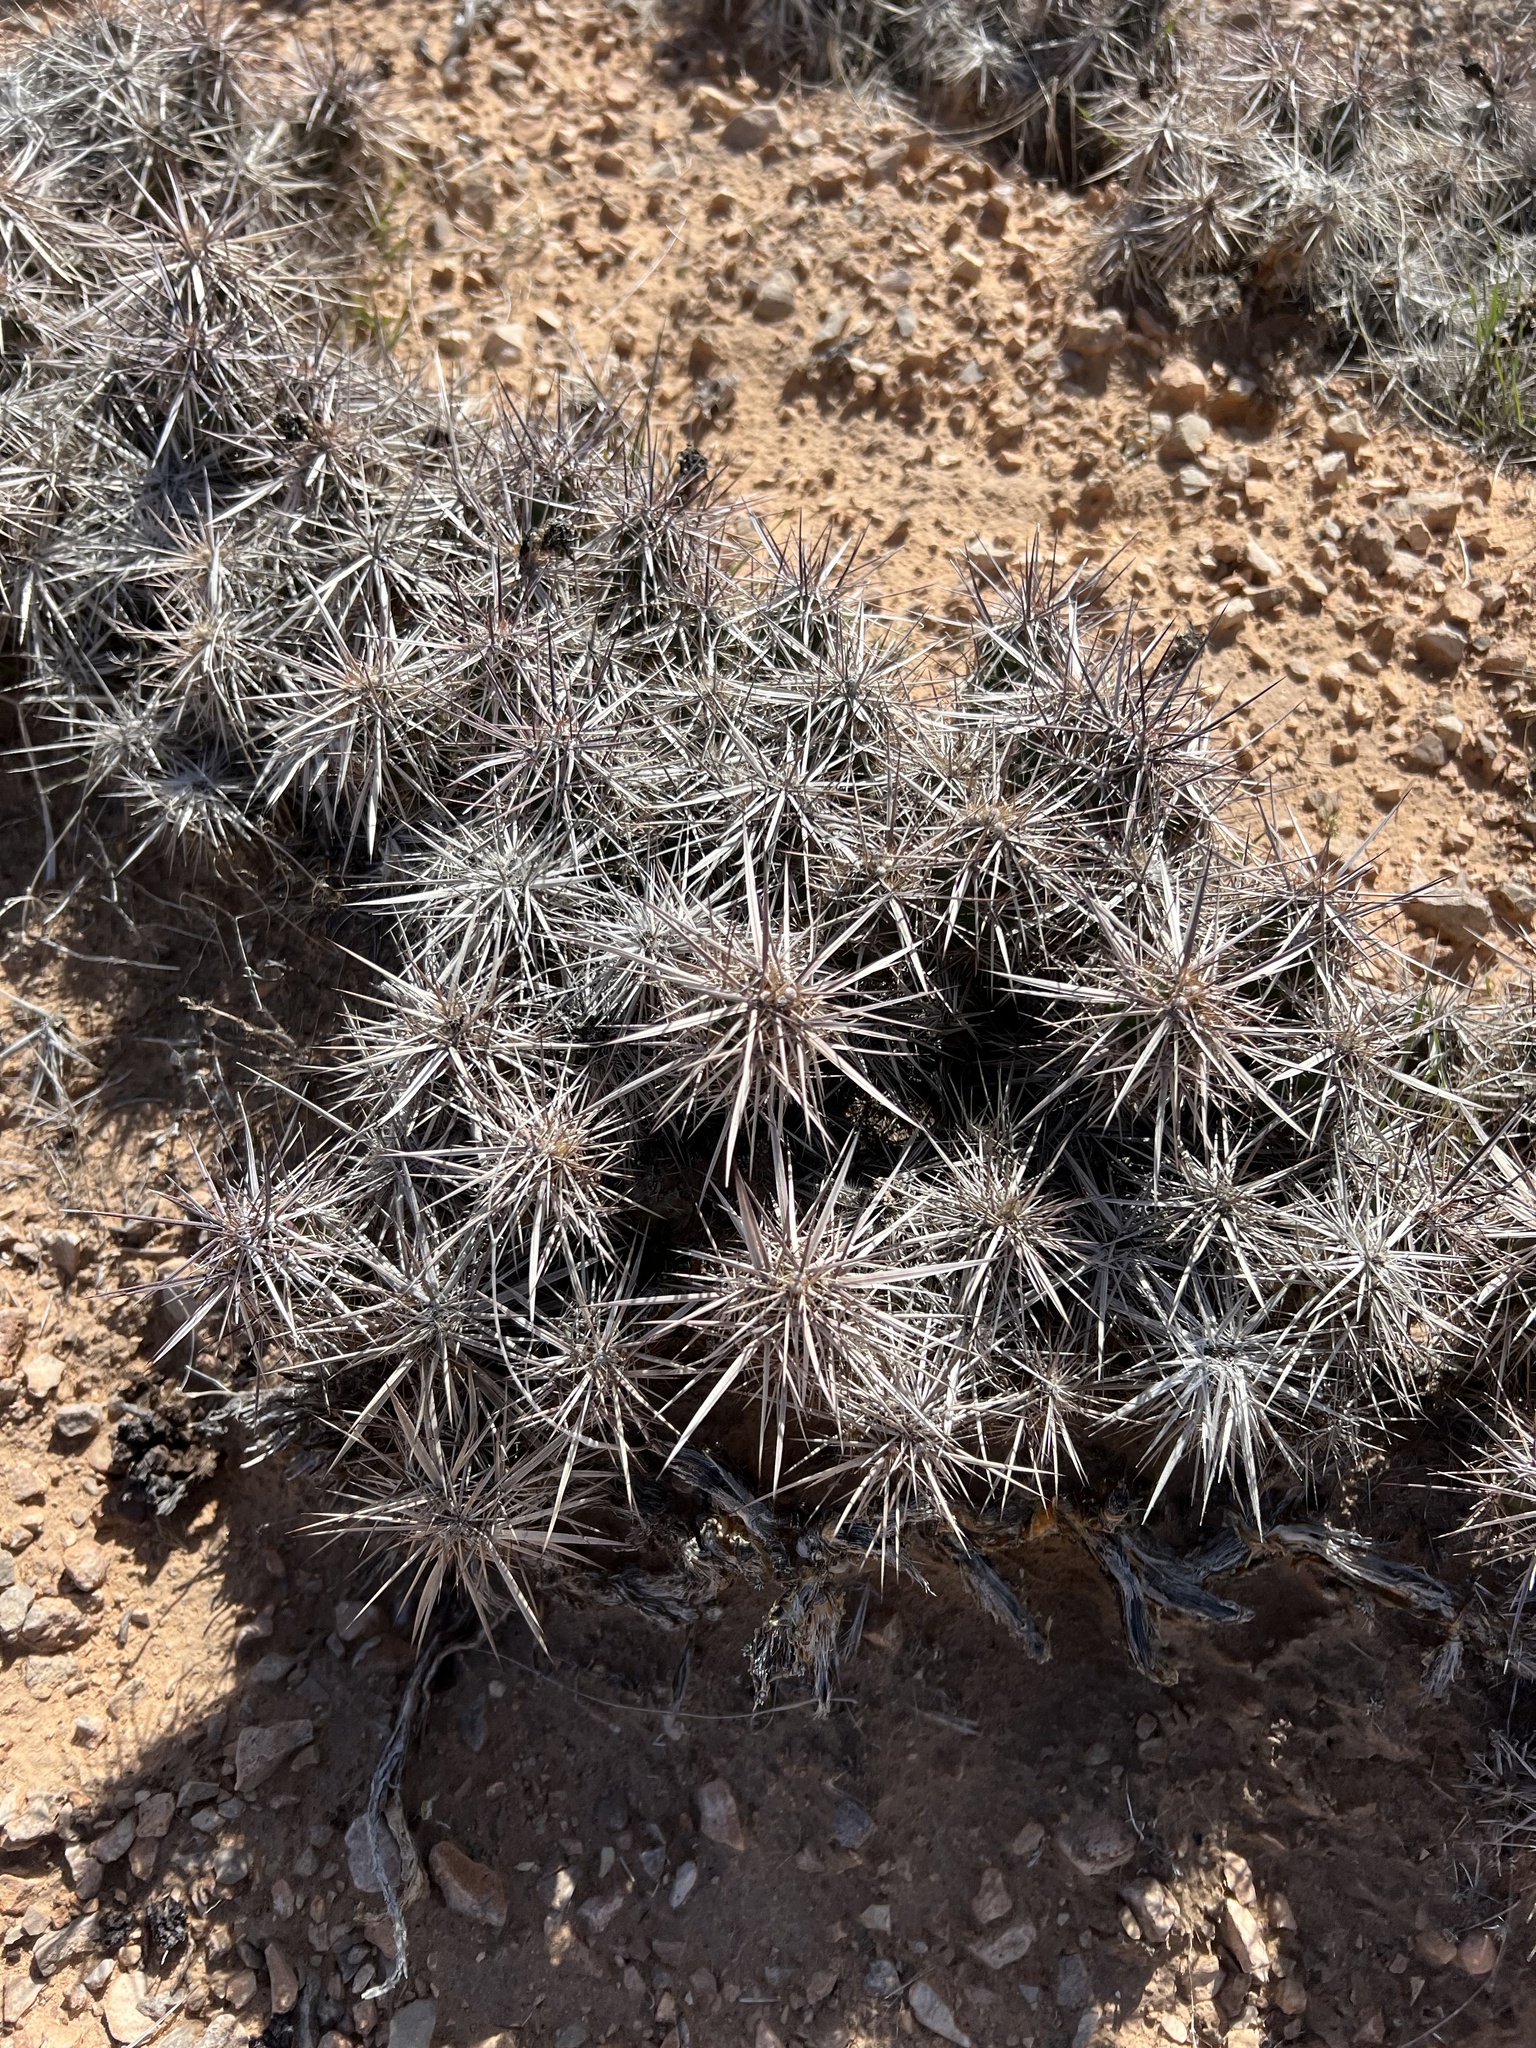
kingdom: Plantae
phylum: Tracheophyta
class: Magnoliopsida
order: Caryophyllales
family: Cactaceae
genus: Grusonia
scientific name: Grusonia parishiorum
